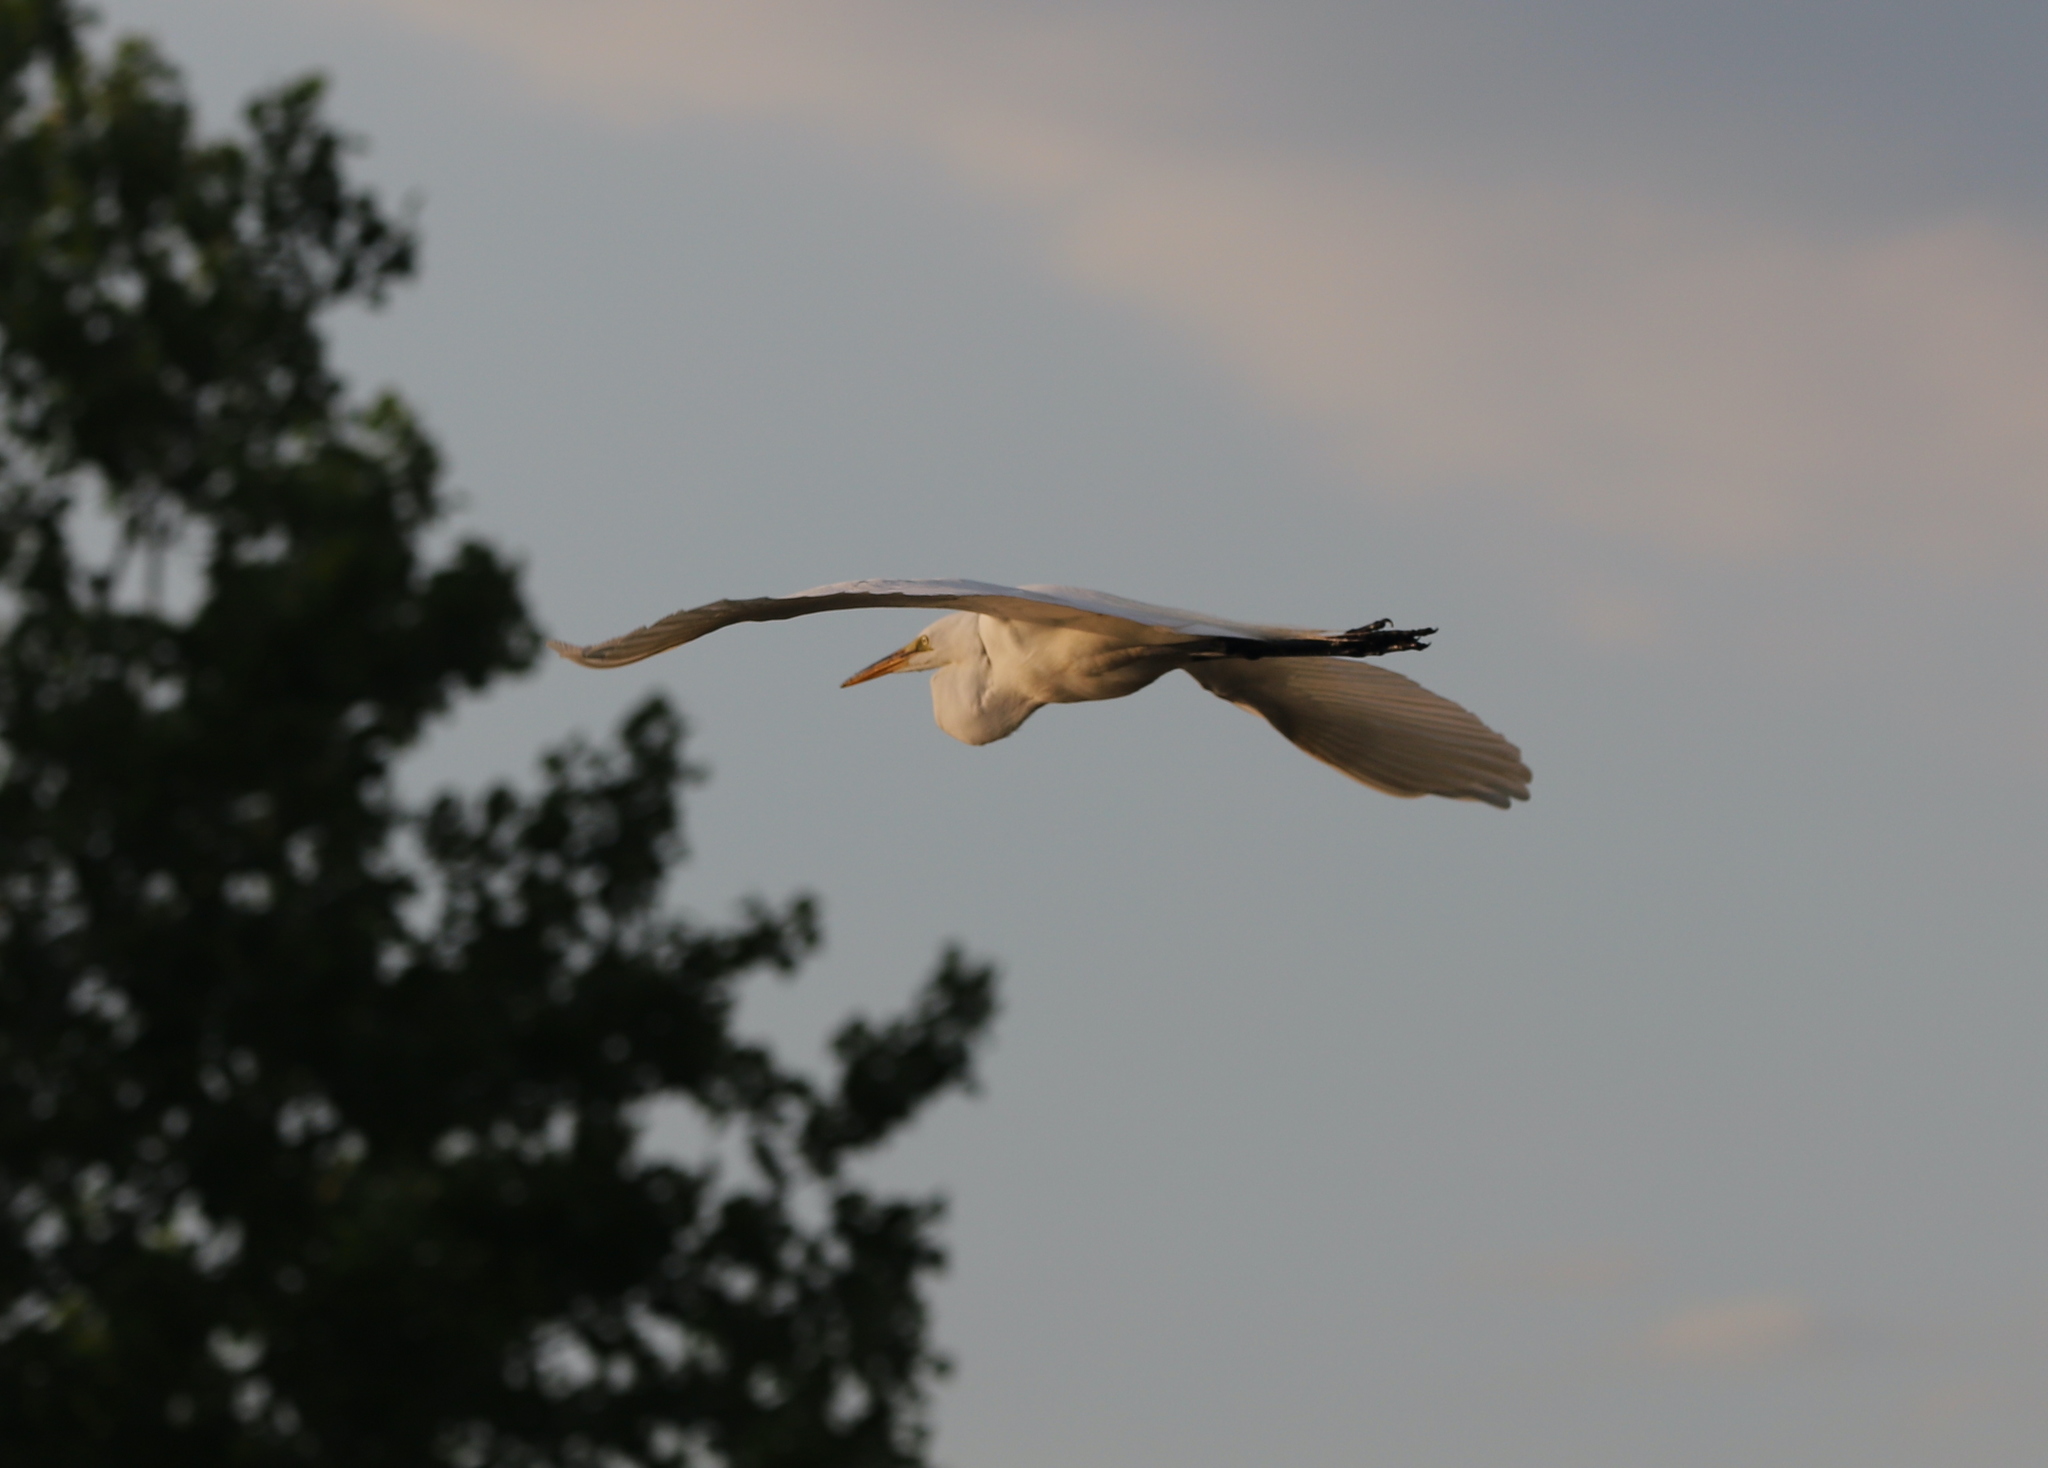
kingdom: Animalia
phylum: Chordata
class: Aves
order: Pelecaniformes
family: Ardeidae
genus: Ardea
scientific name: Ardea alba
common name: Great egret
